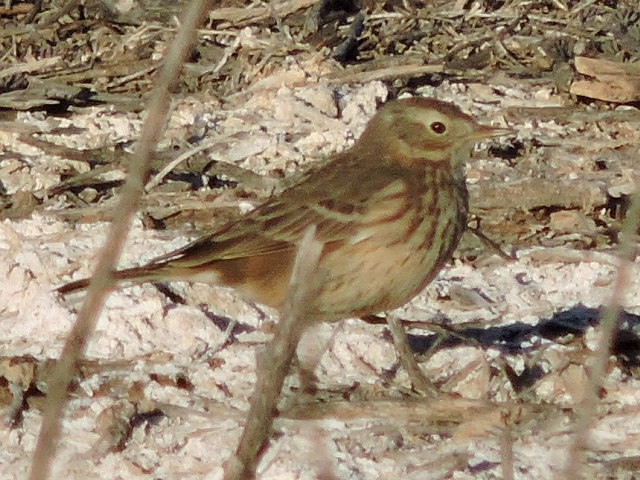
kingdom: Animalia
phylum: Chordata
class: Aves
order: Passeriformes
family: Motacillidae
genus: Anthus
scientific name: Anthus rubescens
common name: Buff-bellied pipit
